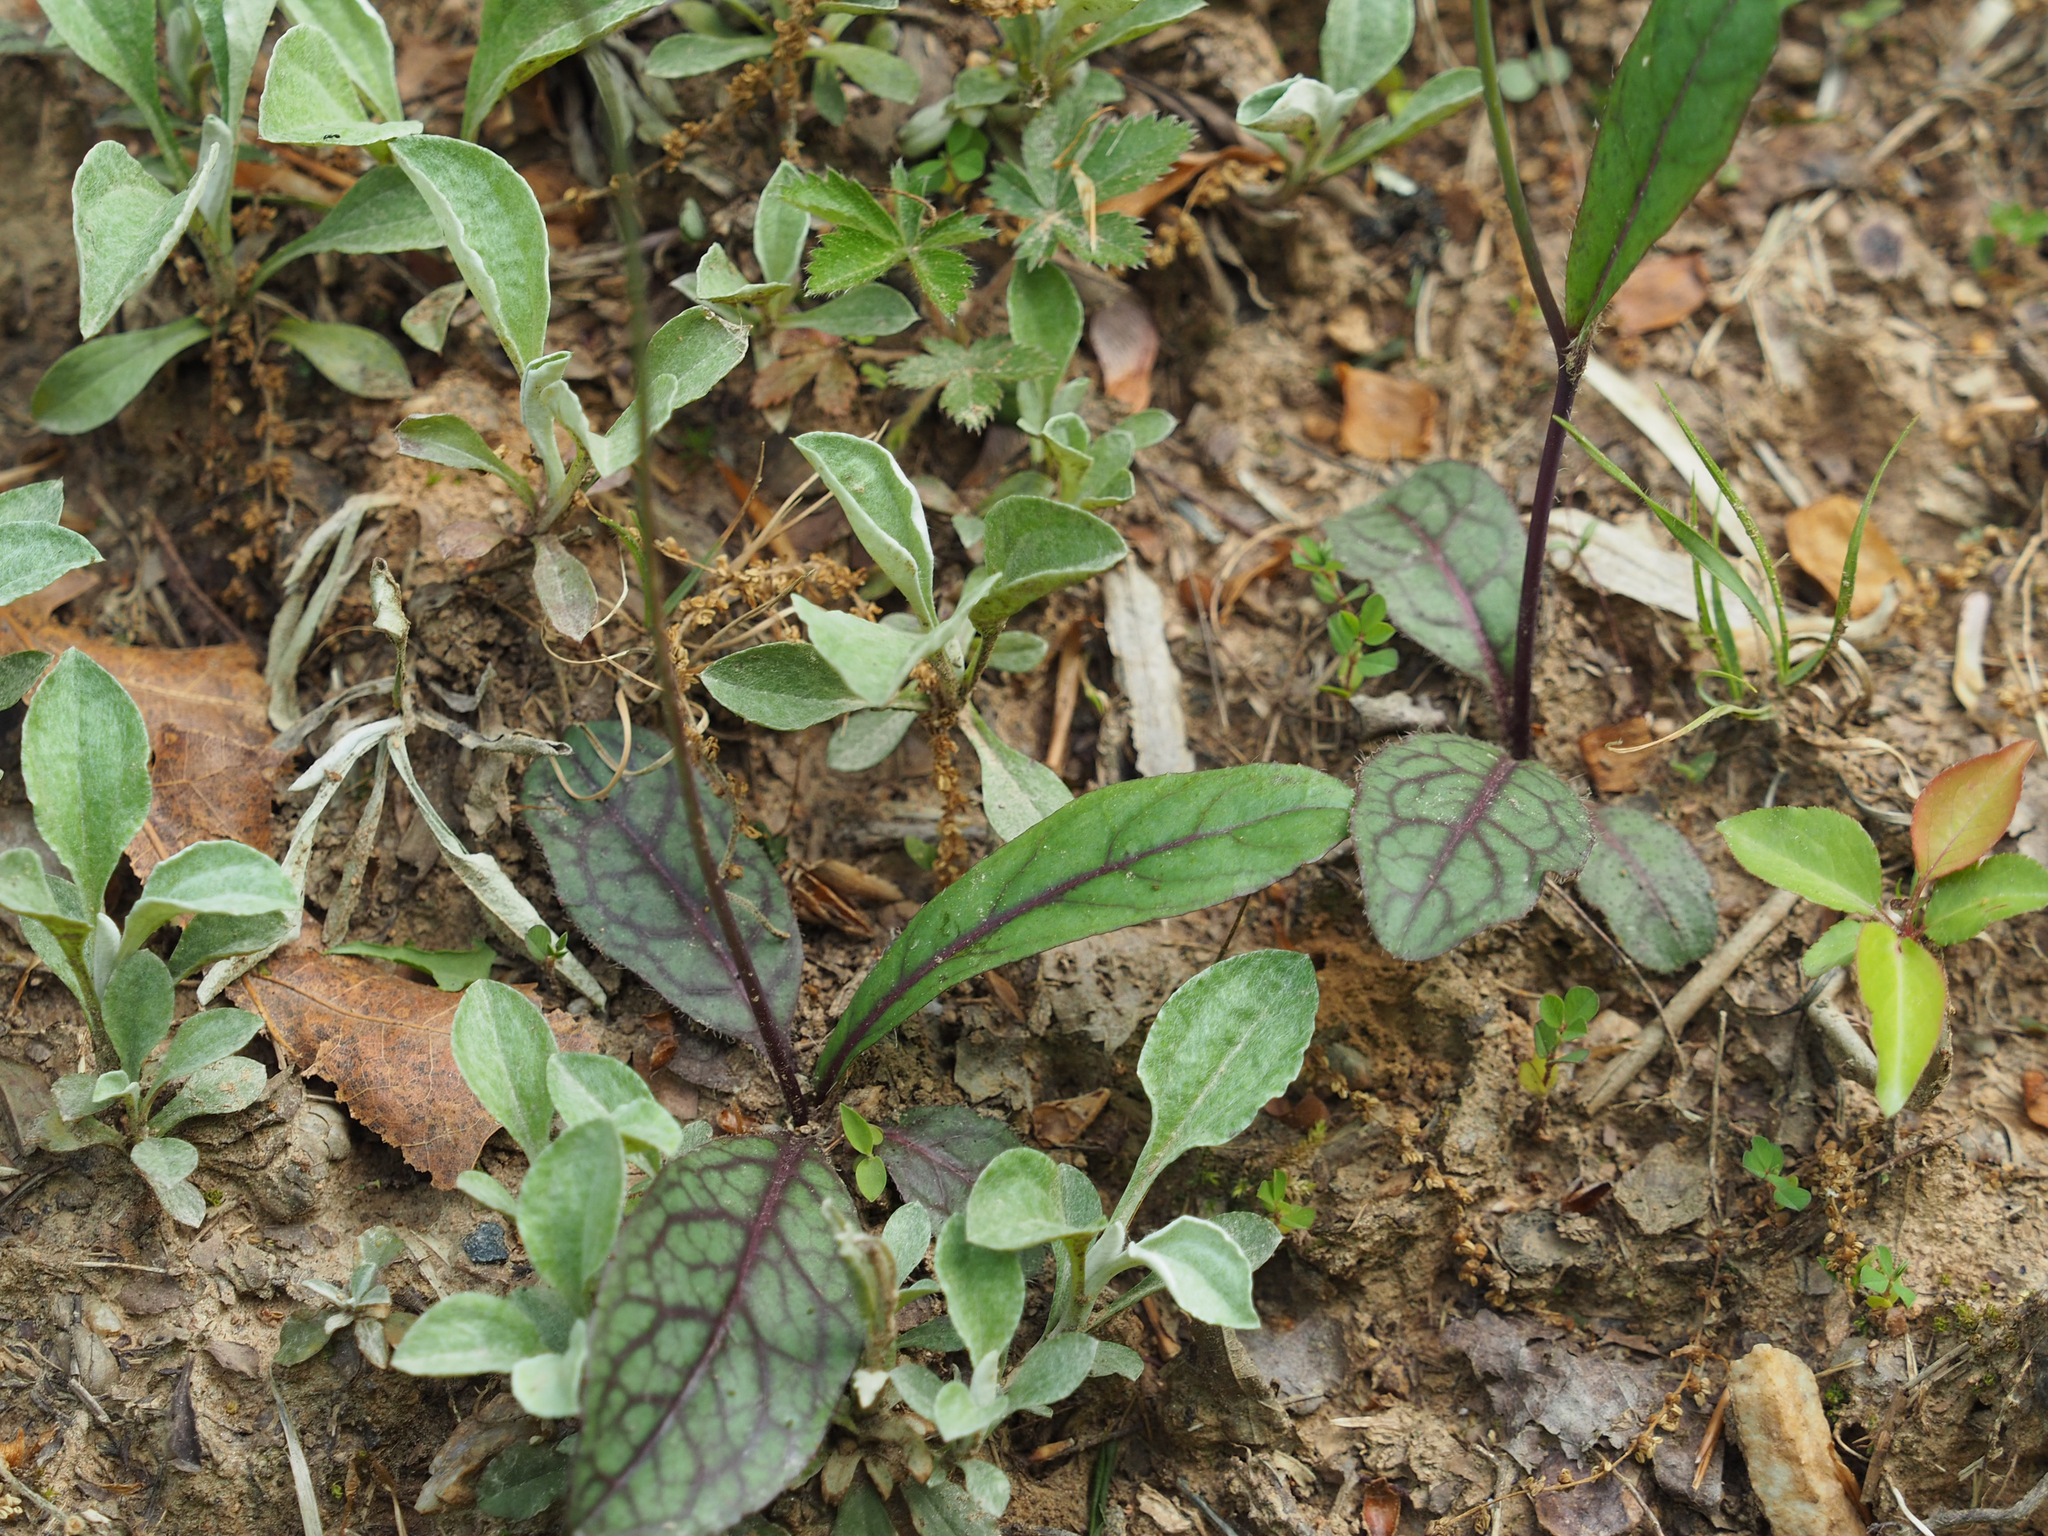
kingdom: Plantae
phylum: Tracheophyta
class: Magnoliopsida
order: Asterales
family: Asteraceae
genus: Hieracium
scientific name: Hieracium venosum
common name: Rattlesnake hawkweed
